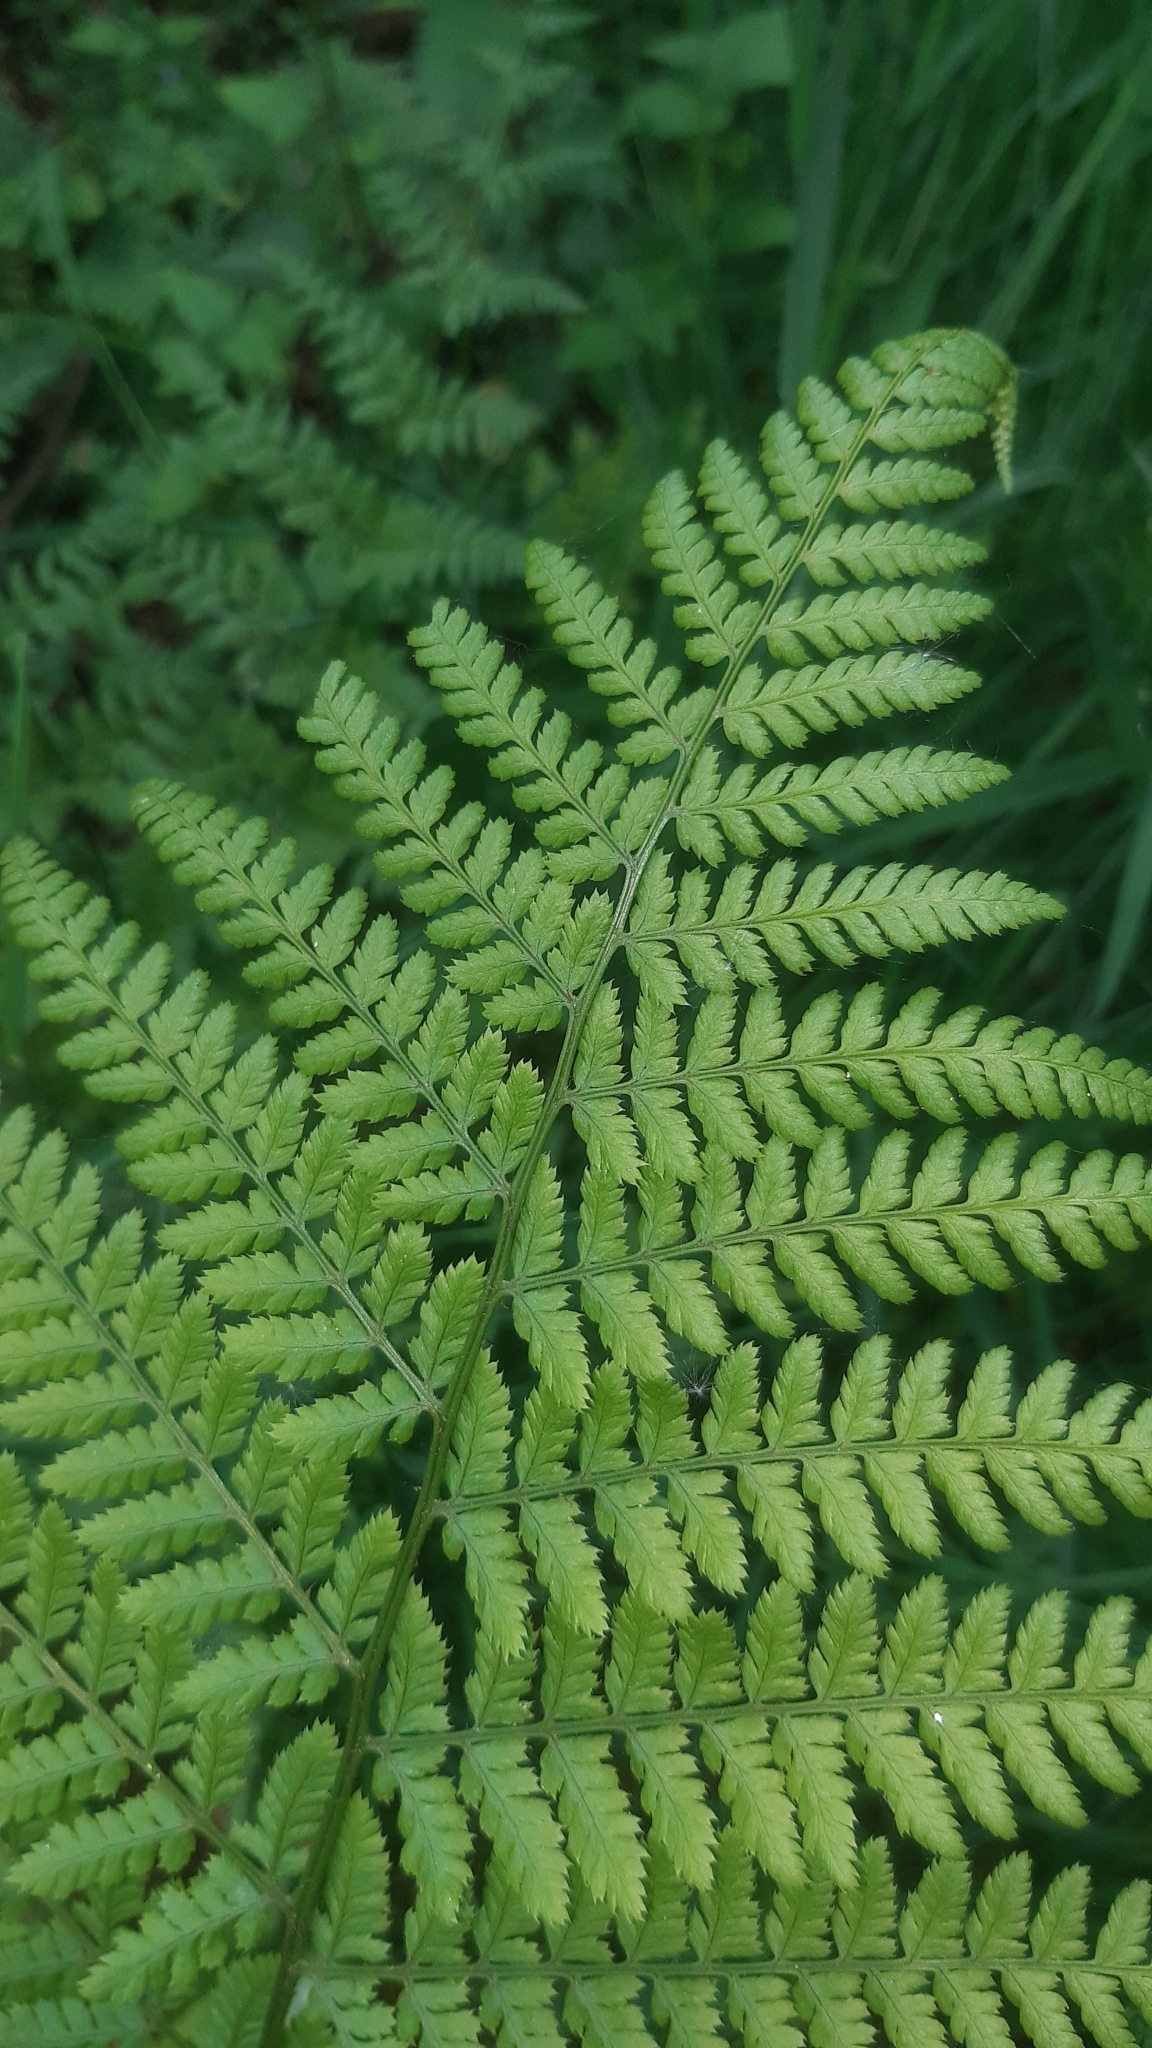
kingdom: Plantae
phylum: Tracheophyta
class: Polypodiopsida
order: Polypodiales
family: Dryopteridaceae
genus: Dryopteris
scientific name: Dryopteris dilatata
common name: Broad buckler-fern
